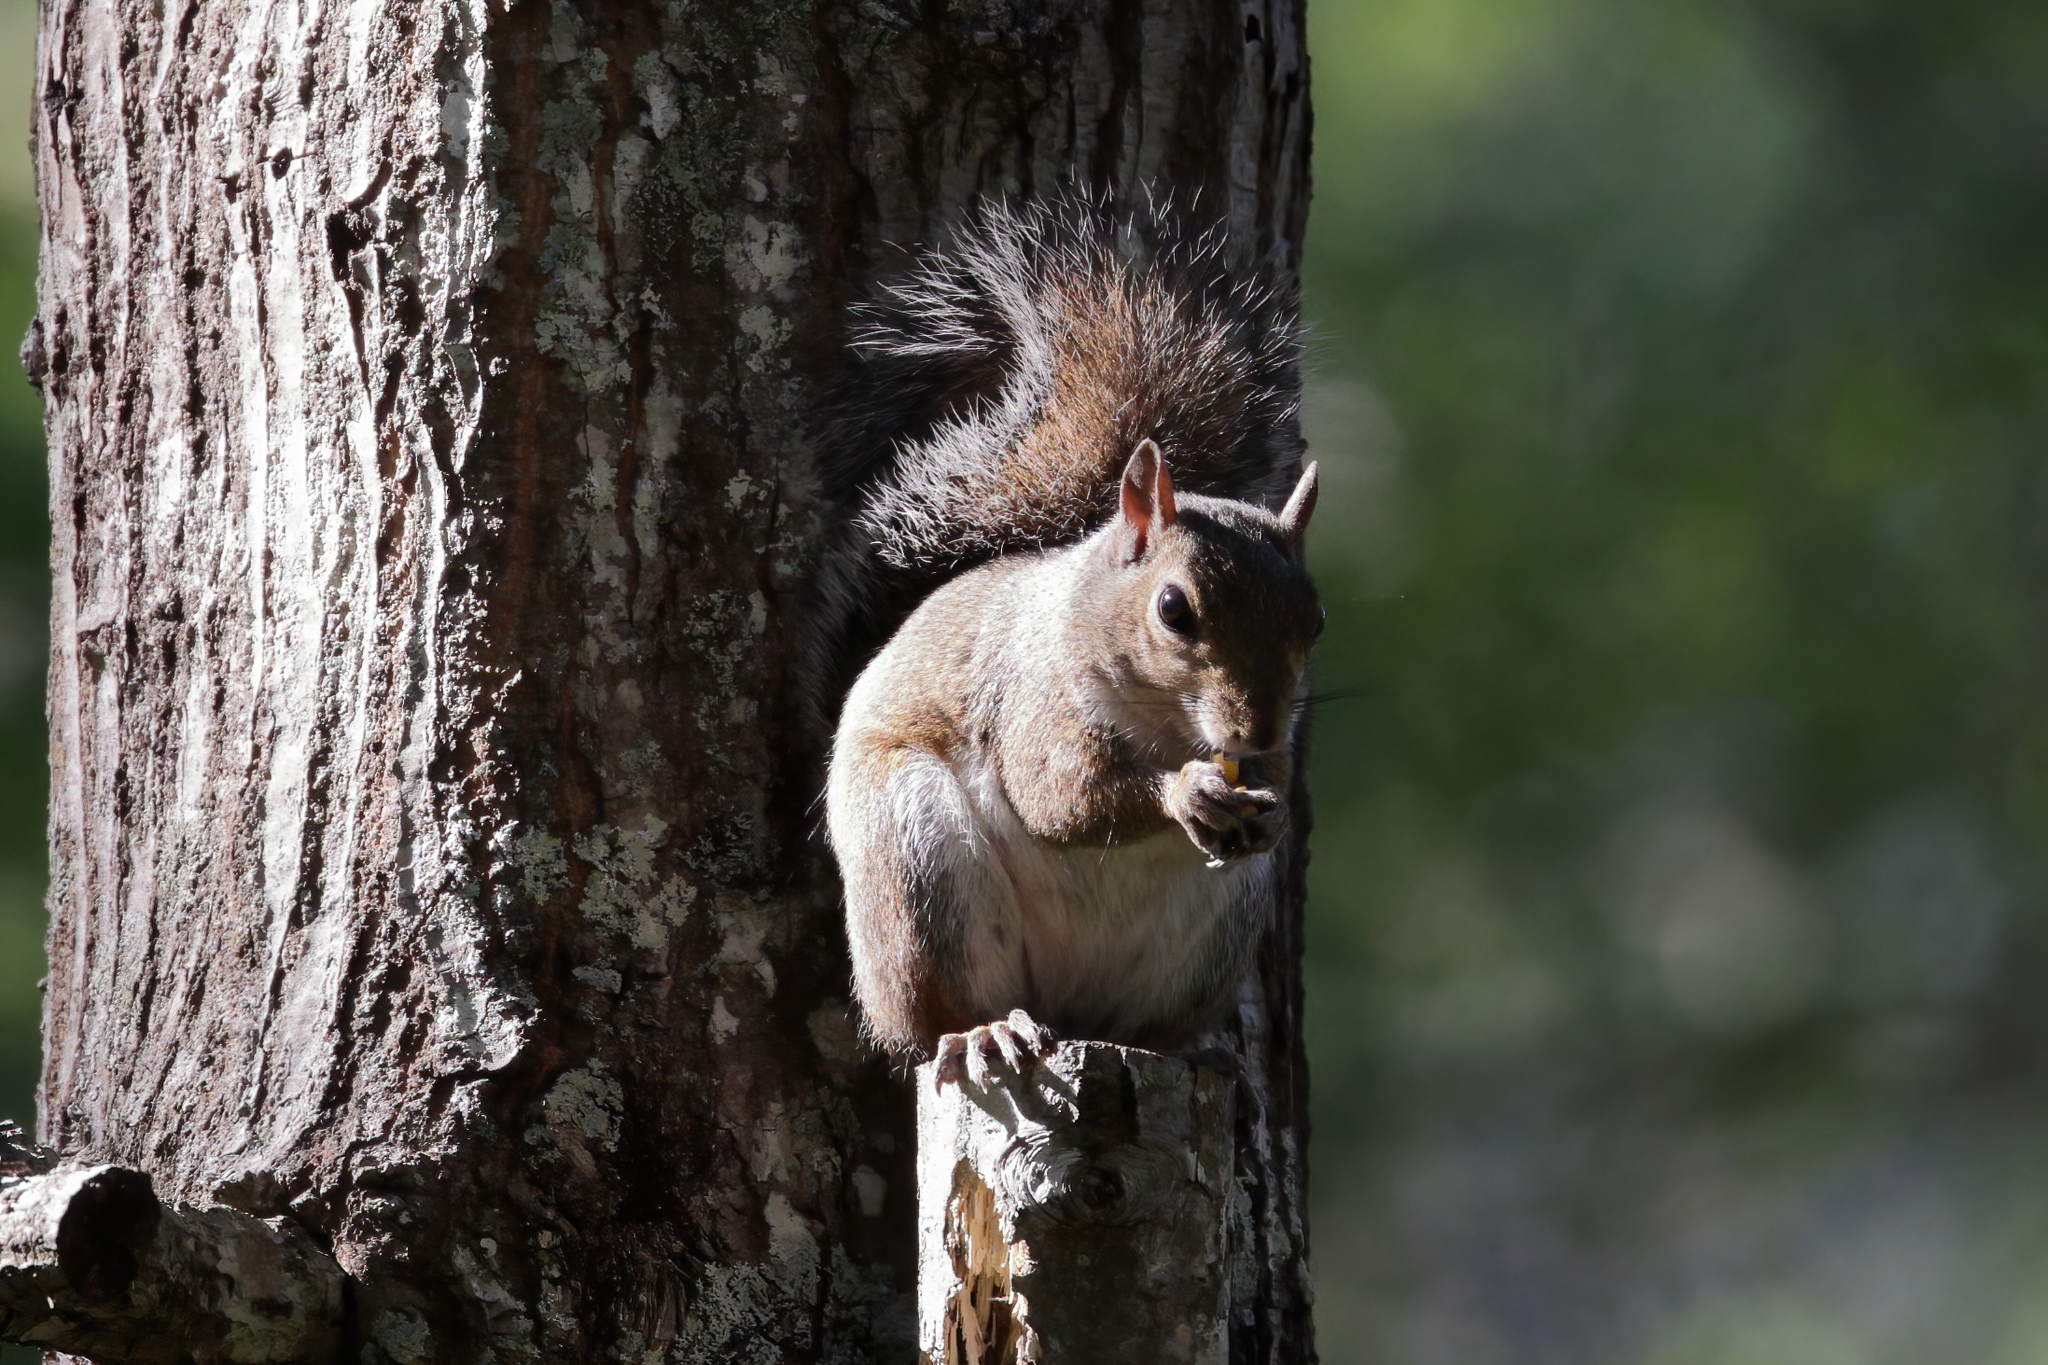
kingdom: Animalia
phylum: Chordata
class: Mammalia
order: Rodentia
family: Sciuridae
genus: Sciurus
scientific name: Sciurus carolinensis
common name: Eastern gray squirrel
